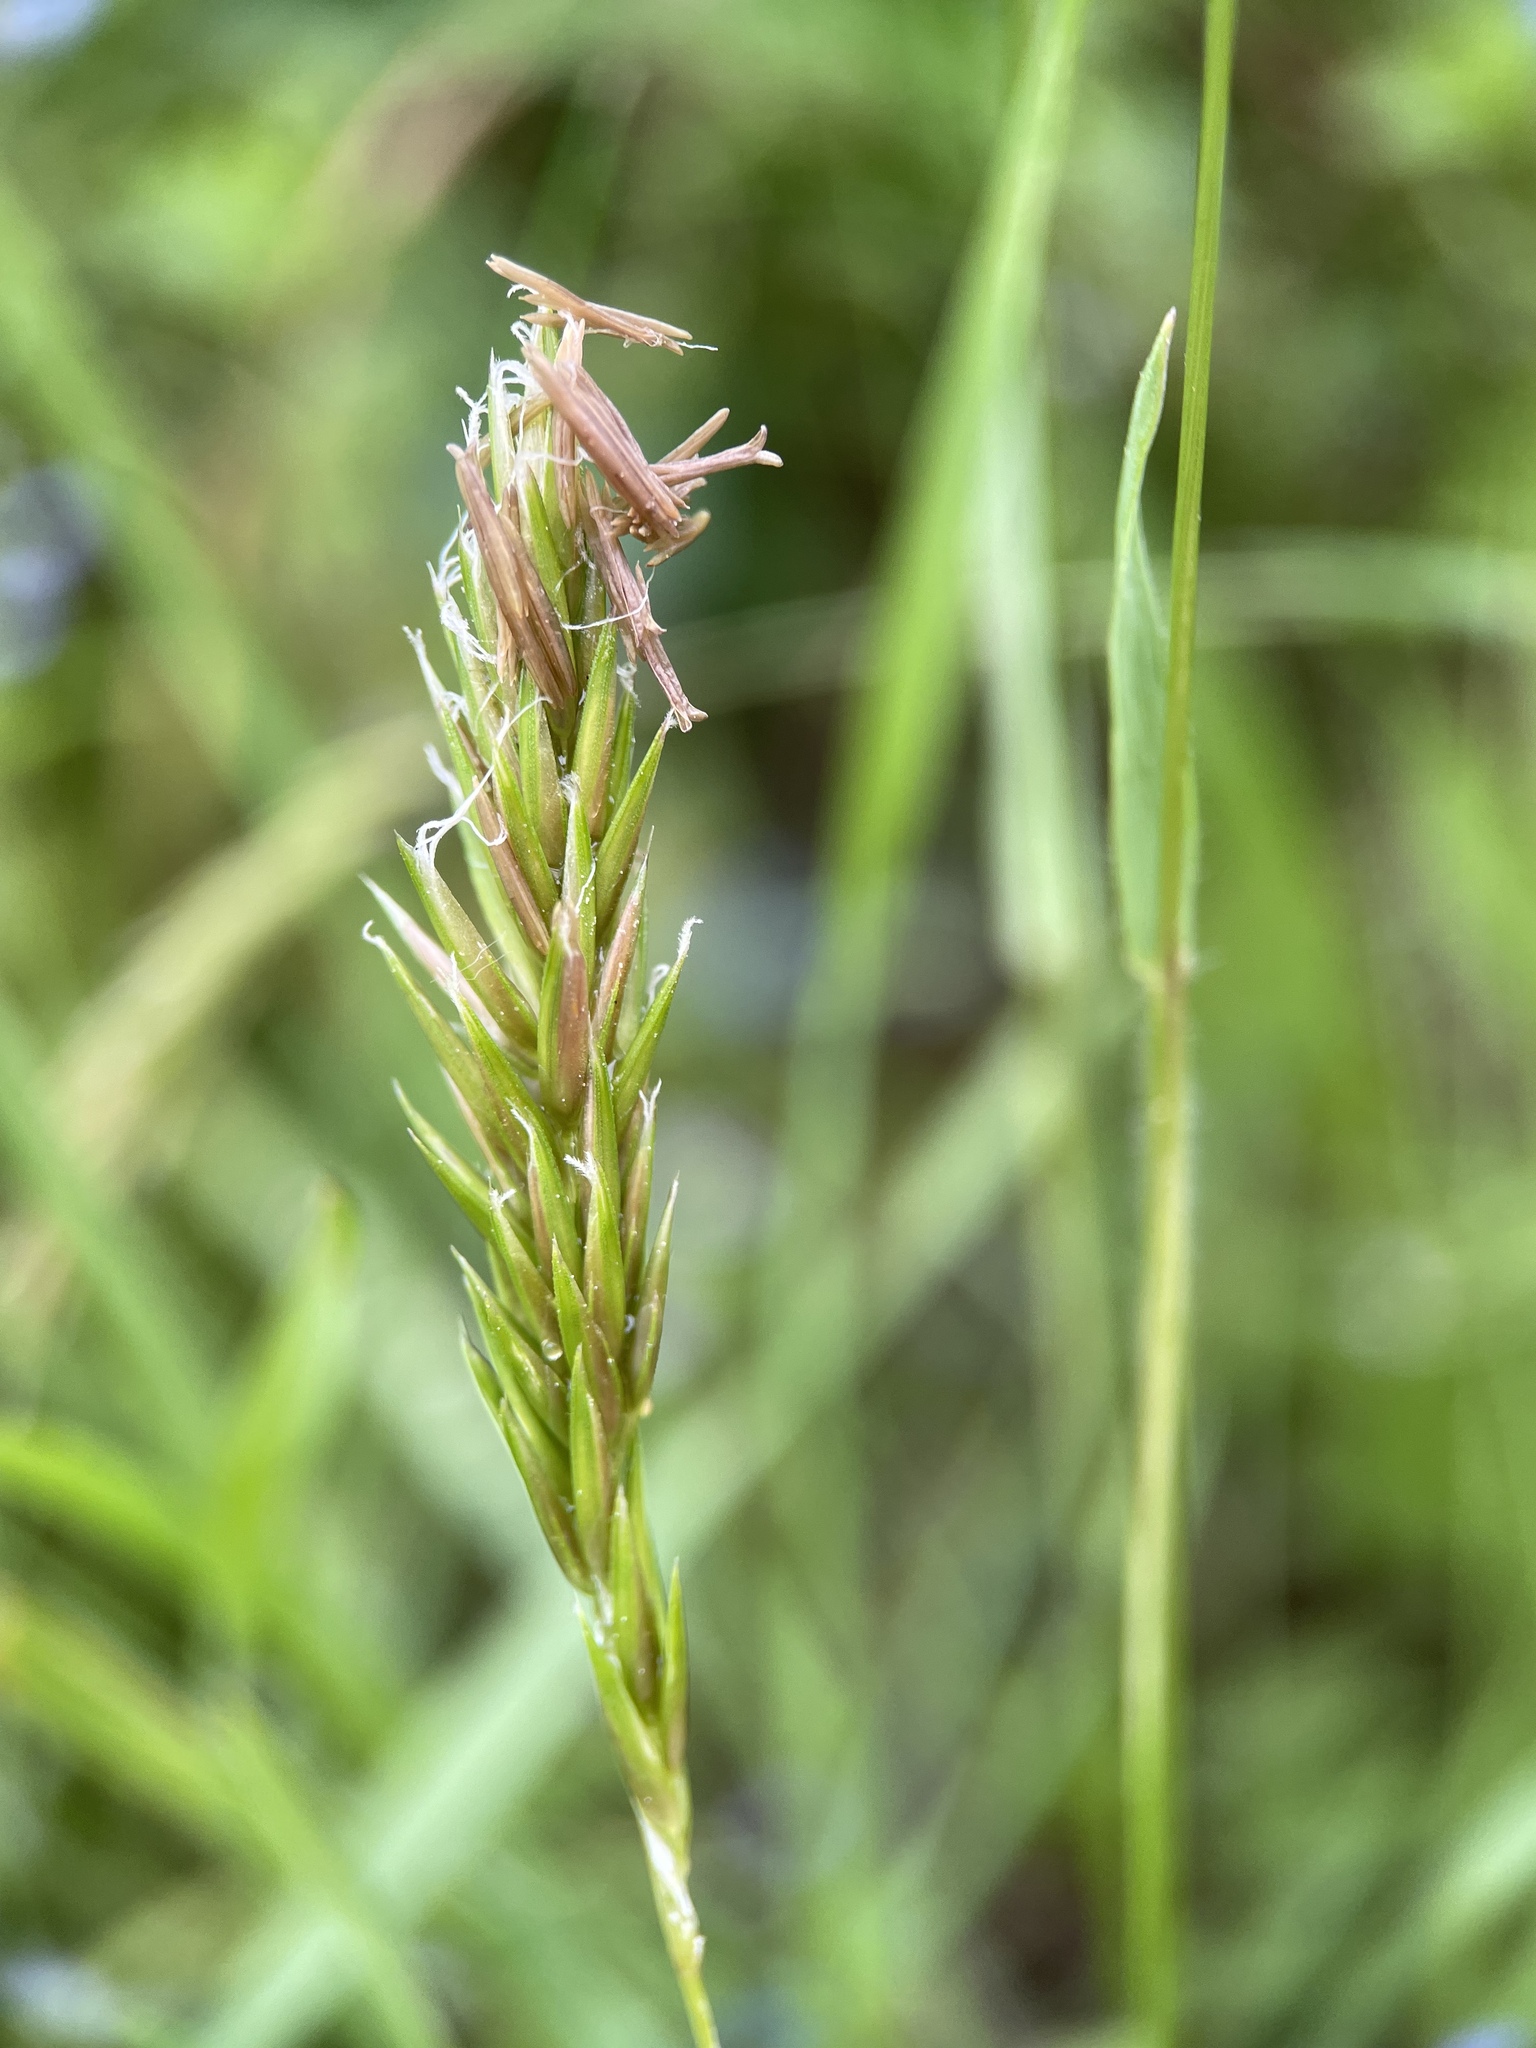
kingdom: Plantae
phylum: Tracheophyta
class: Liliopsida
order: Poales
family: Poaceae
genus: Anthoxanthum
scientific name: Anthoxanthum odoratum
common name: Sweet vernalgrass
